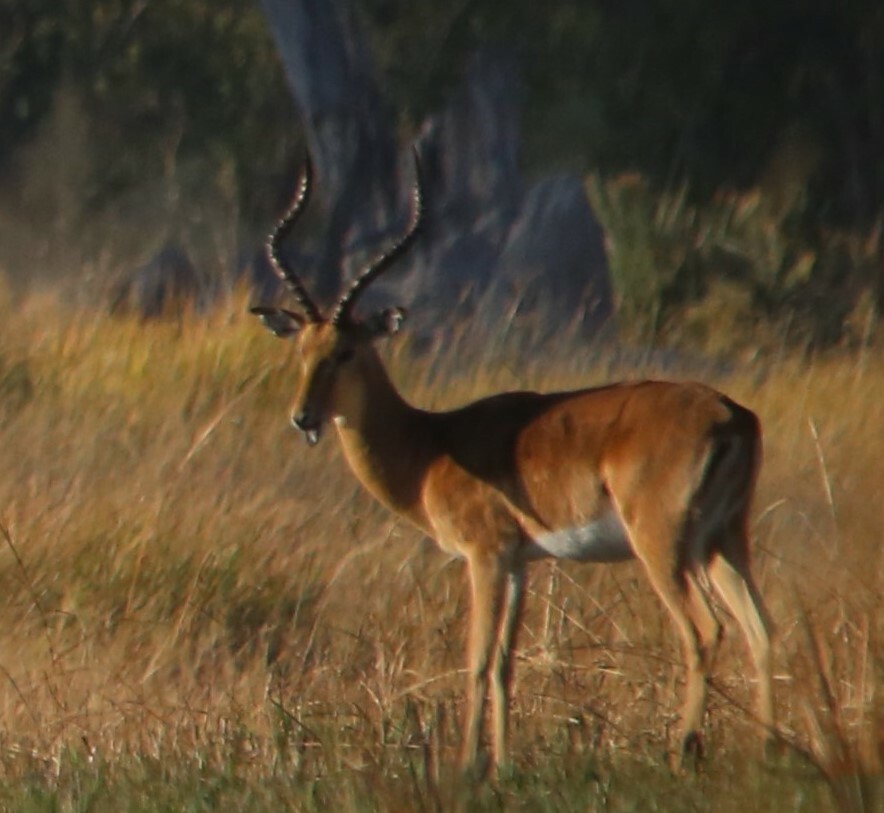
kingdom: Animalia
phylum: Chordata
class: Mammalia
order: Artiodactyla
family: Bovidae
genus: Aepyceros
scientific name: Aepyceros melampus
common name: Impala
